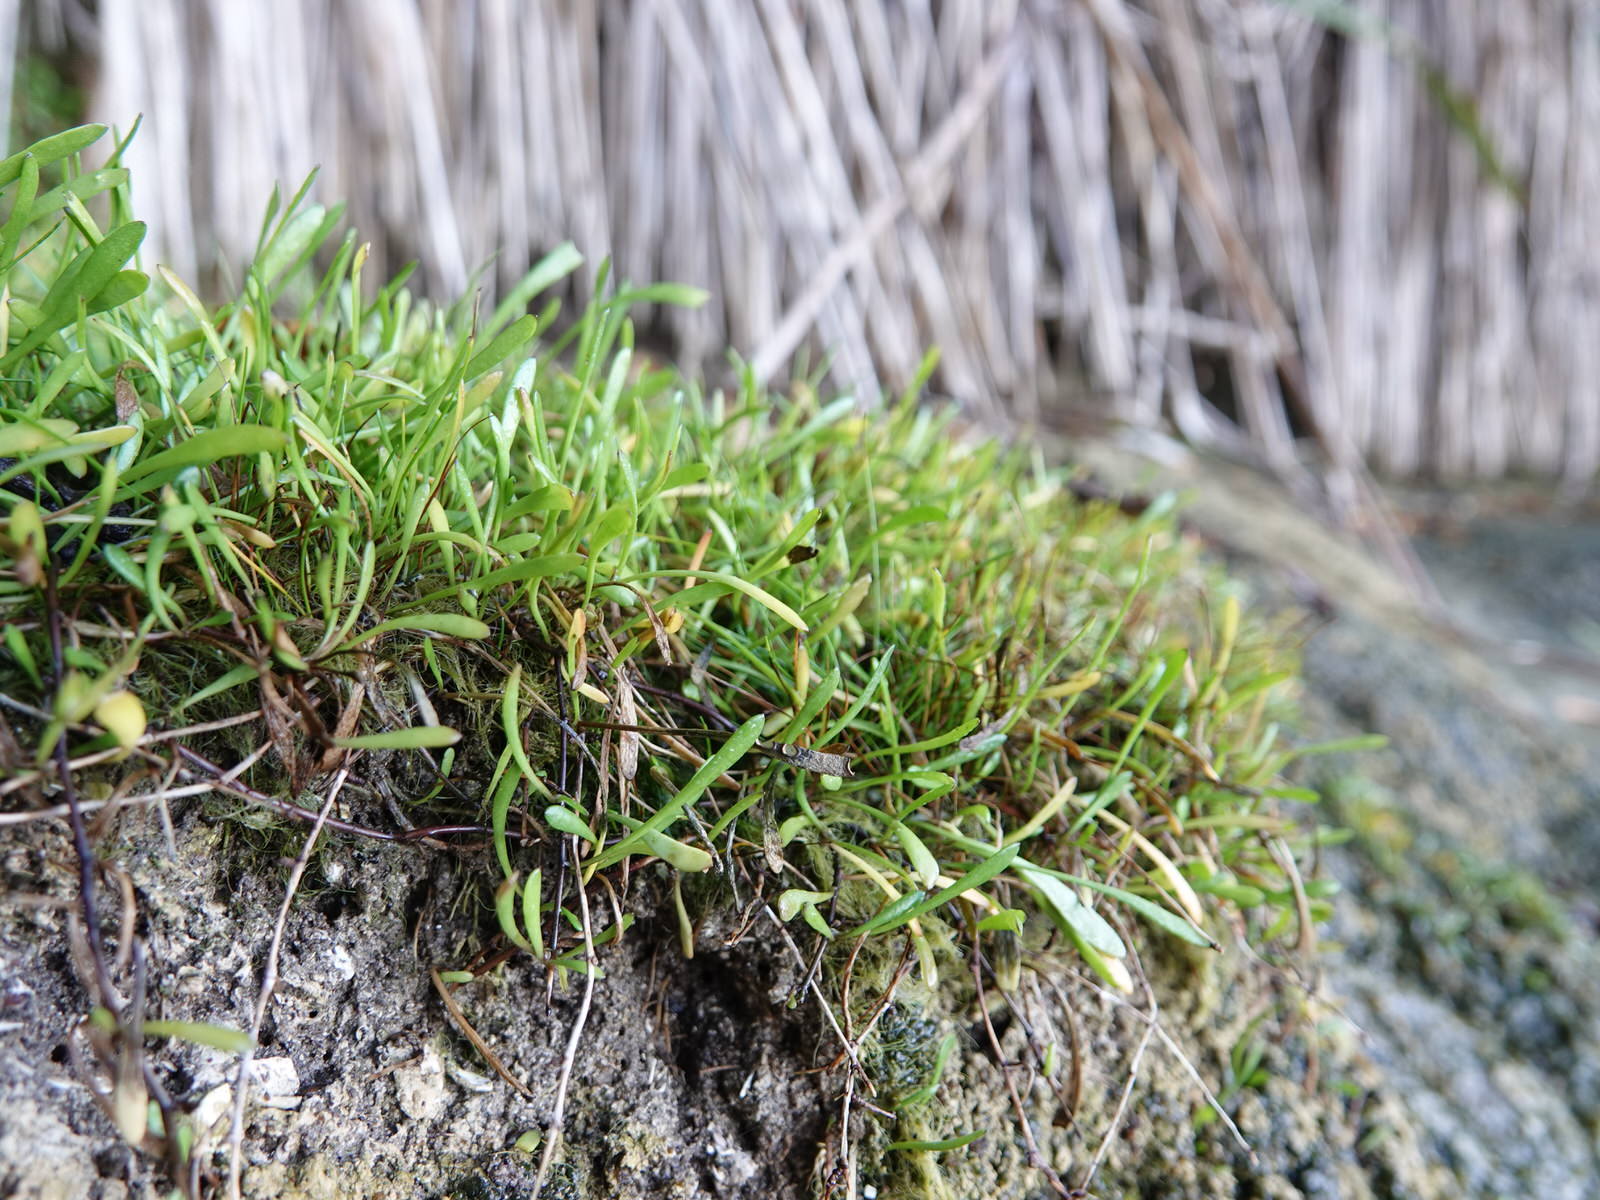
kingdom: Plantae
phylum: Tracheophyta
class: Magnoliopsida
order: Asterales
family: Goodeniaceae
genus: Goodenia
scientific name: Goodenia radicans
